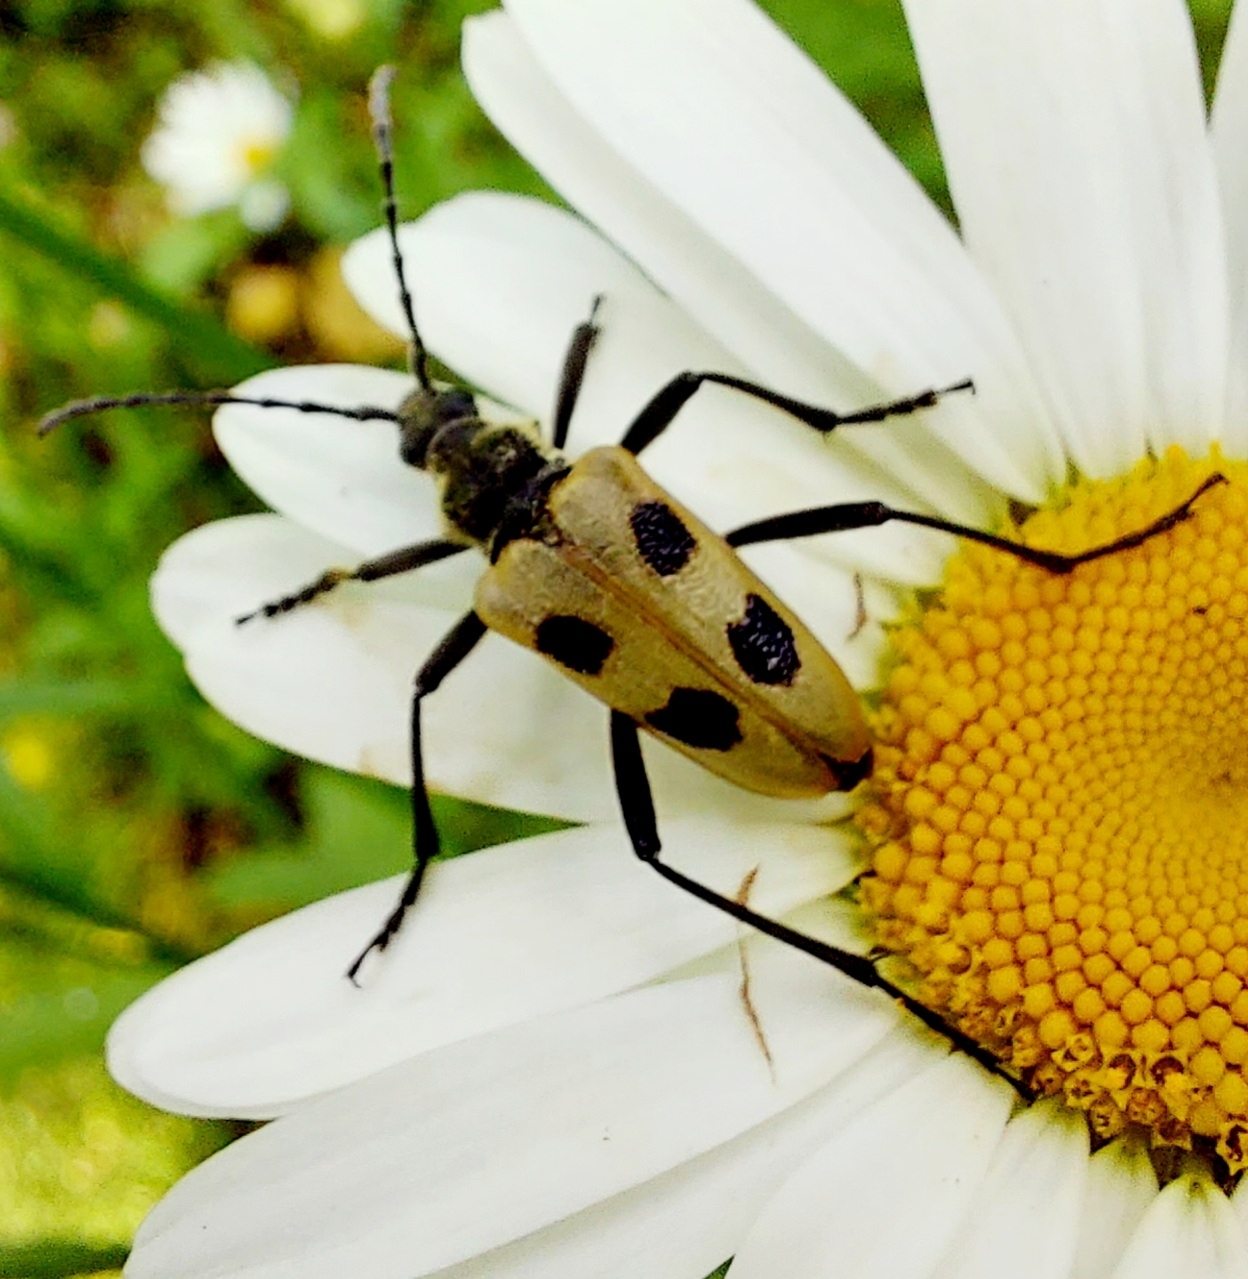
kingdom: Animalia
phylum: Arthropoda
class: Insecta
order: Coleoptera
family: Cerambycidae
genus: Pachyta
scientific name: Pachyta quadrimaculata
